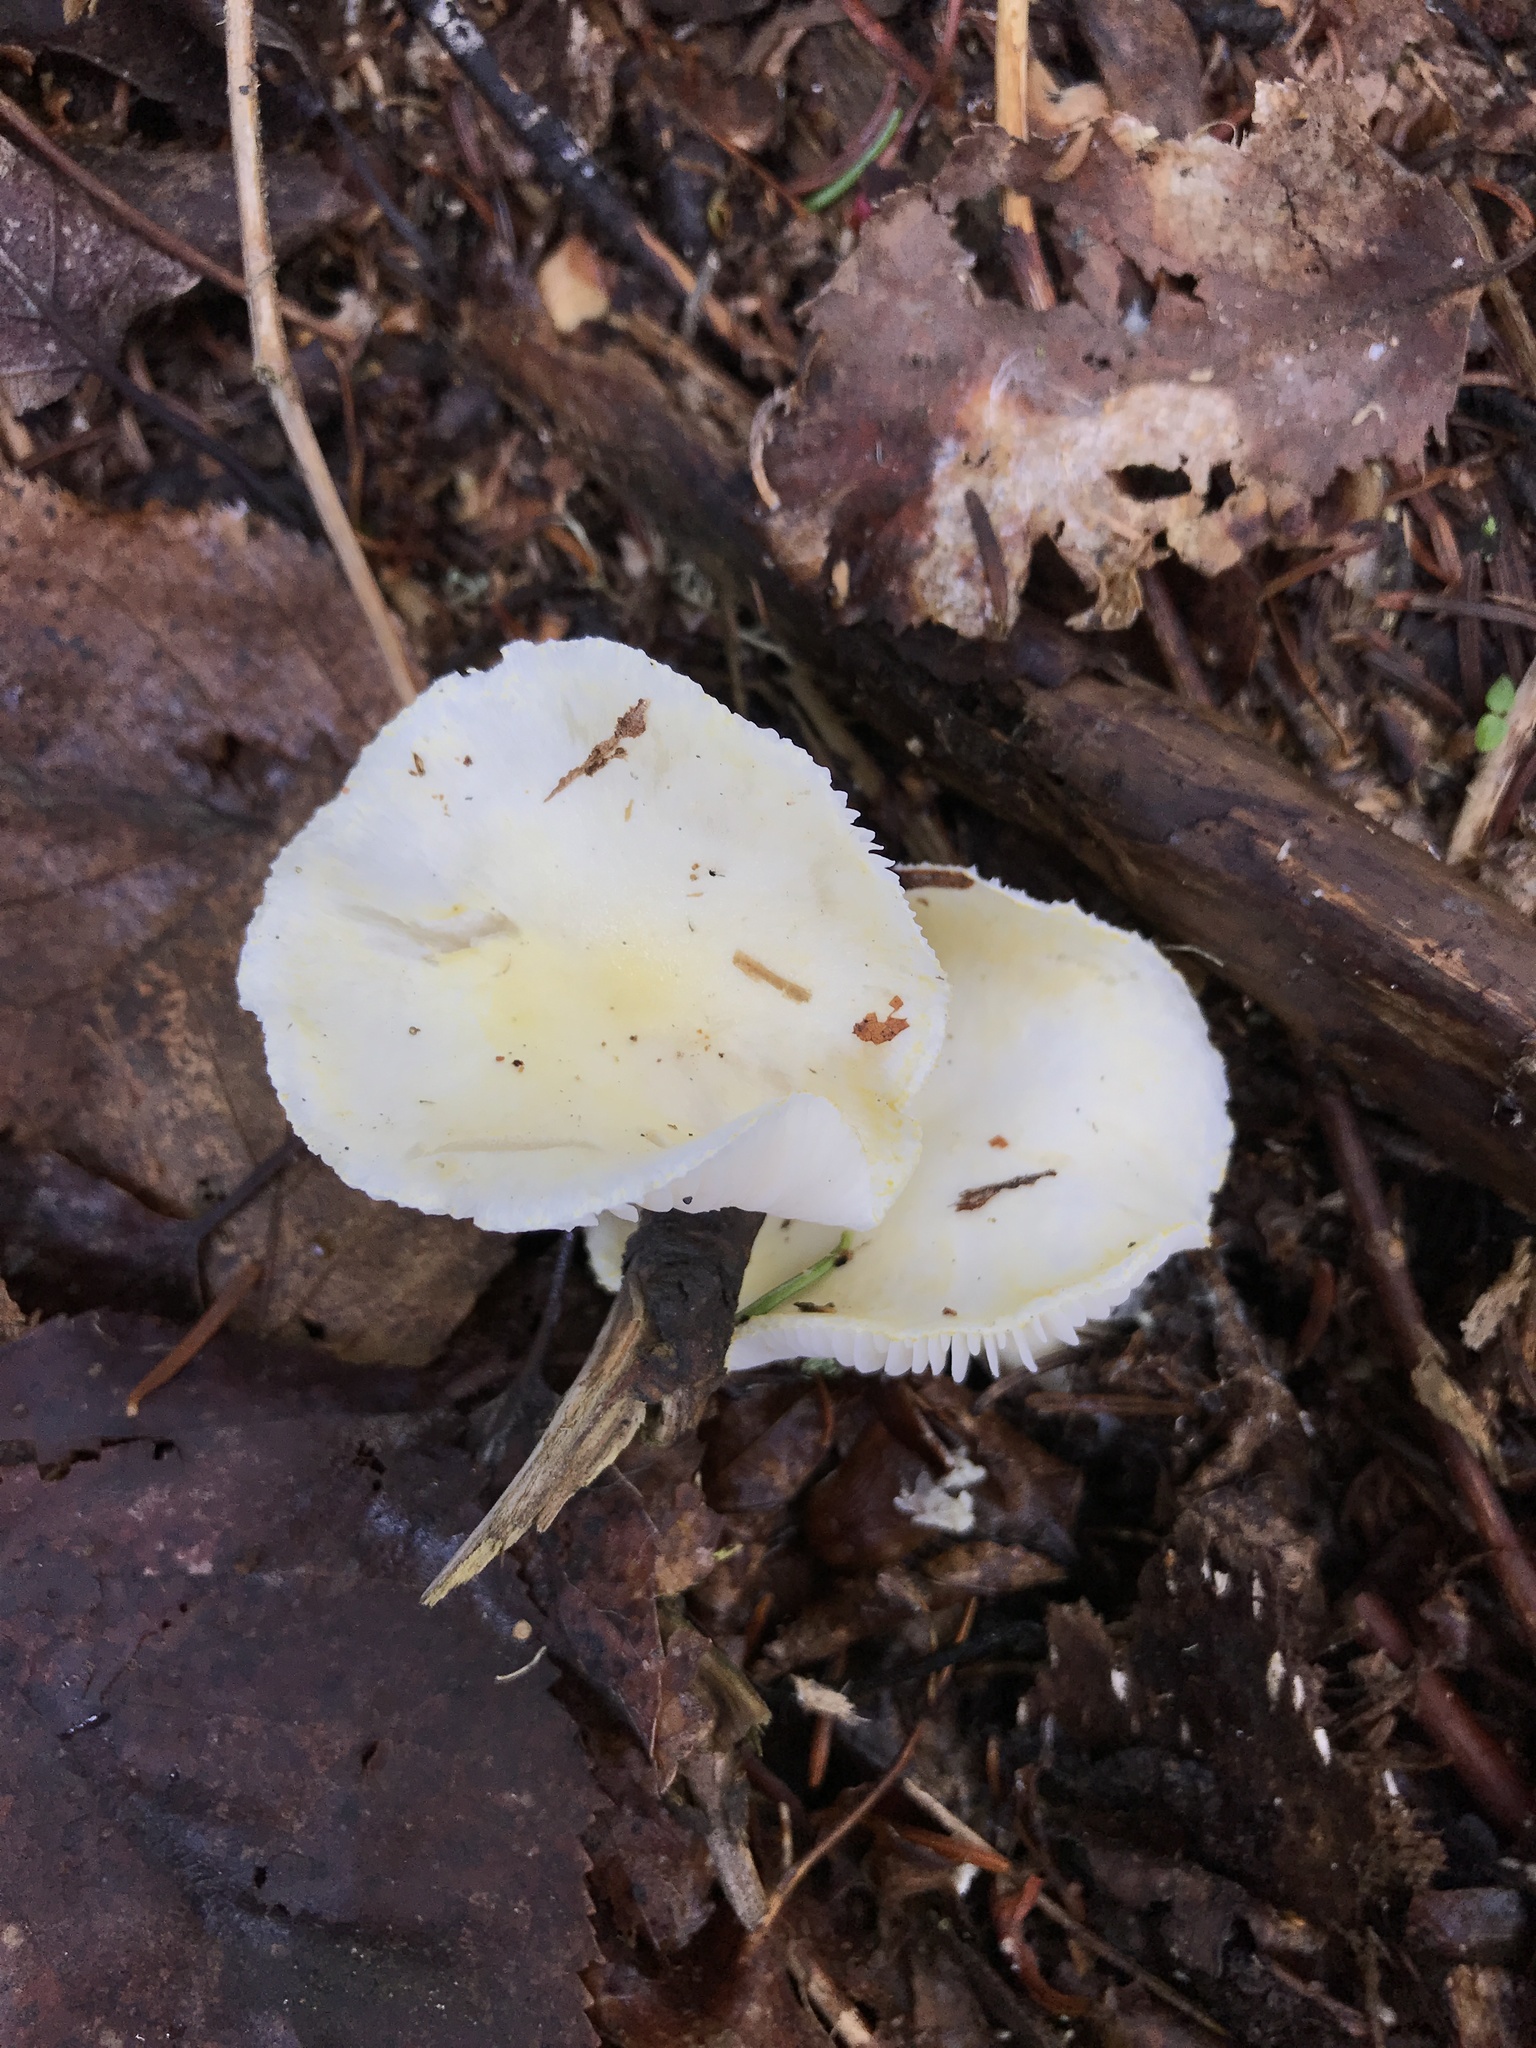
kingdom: Fungi
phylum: Basidiomycota
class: Agaricomycetes
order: Agaricales
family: Hygrophoraceae
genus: Hygrophorus
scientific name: Hygrophorus chrysodon
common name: Gold flecked woodwax
